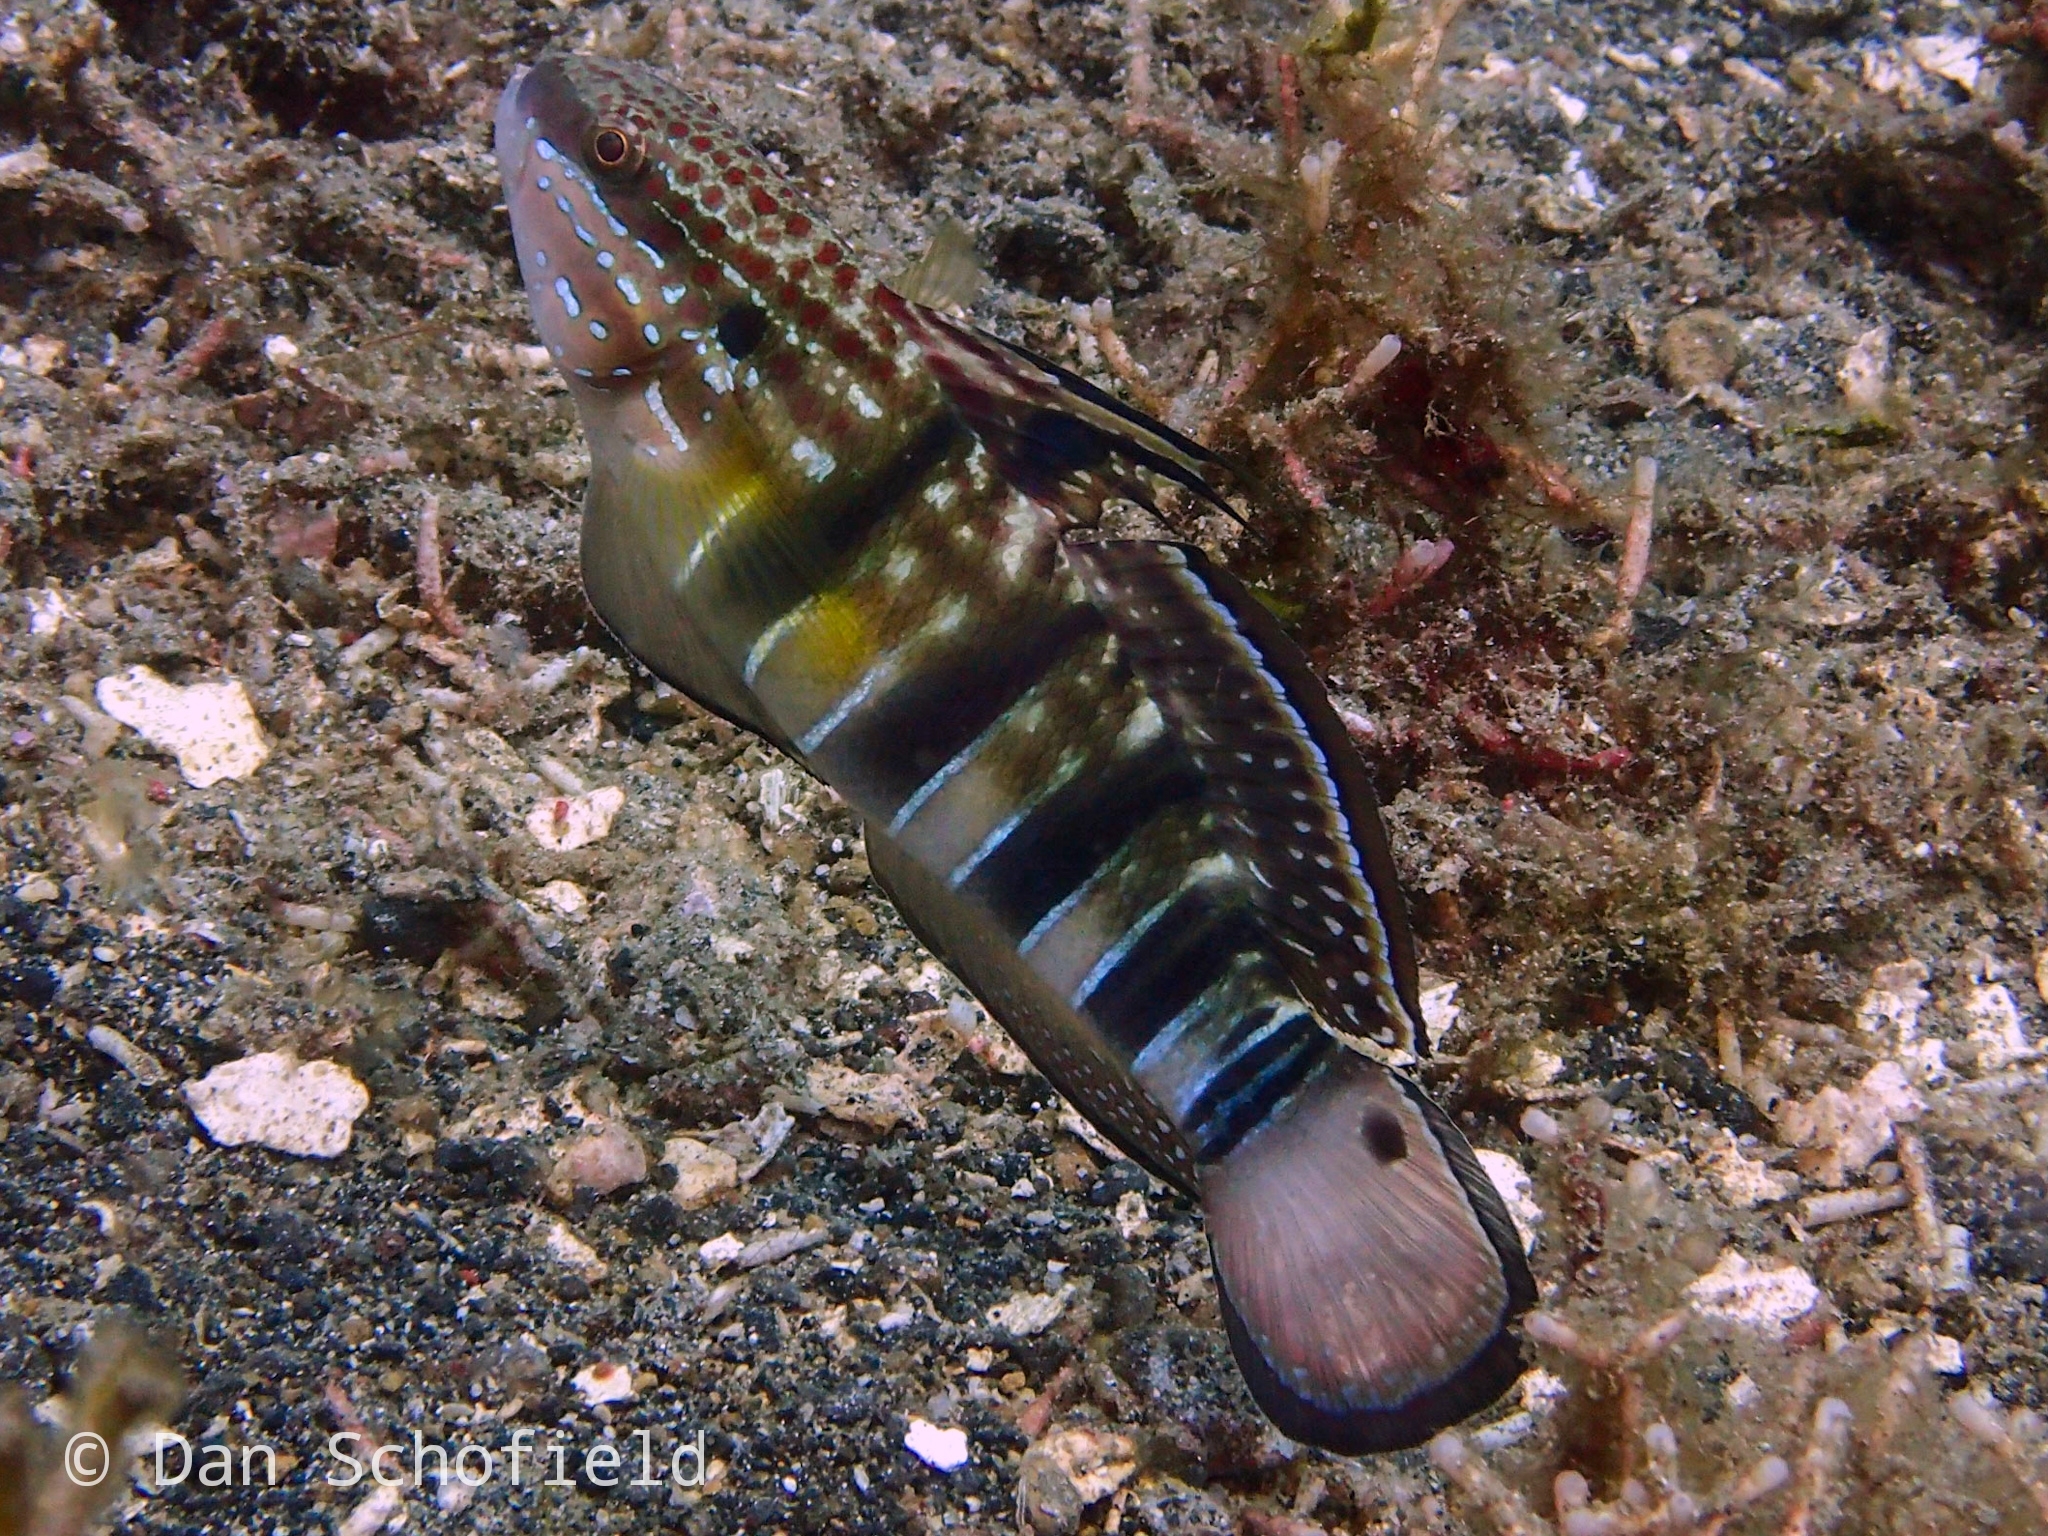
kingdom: Animalia
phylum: Chordata
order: Perciformes
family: Gobiidae
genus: Amblygobius
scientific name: Amblygobius phalaena
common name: Banded goby
